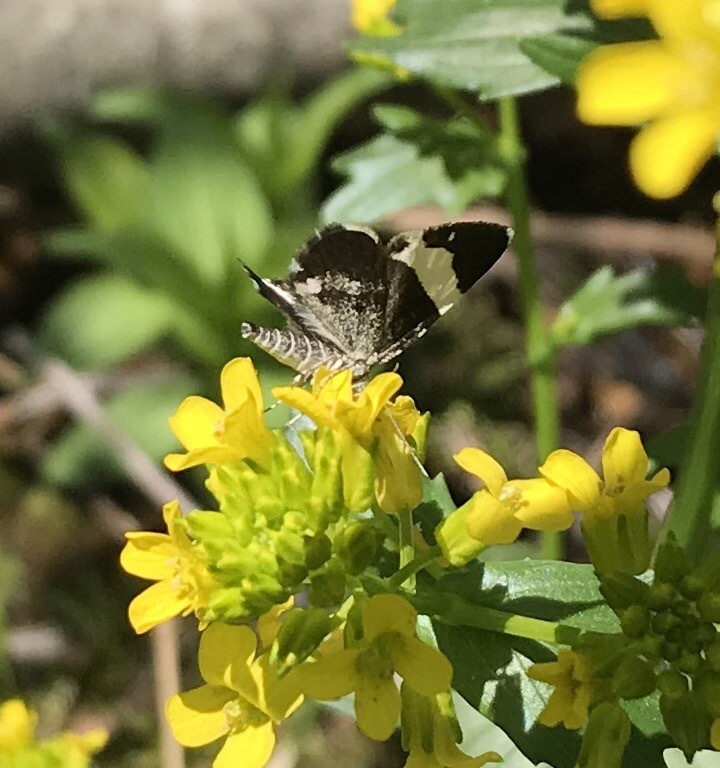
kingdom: Animalia
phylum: Arthropoda
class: Insecta
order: Lepidoptera
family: Geometridae
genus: Trichodezia
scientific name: Trichodezia albovittata
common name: White striped black
